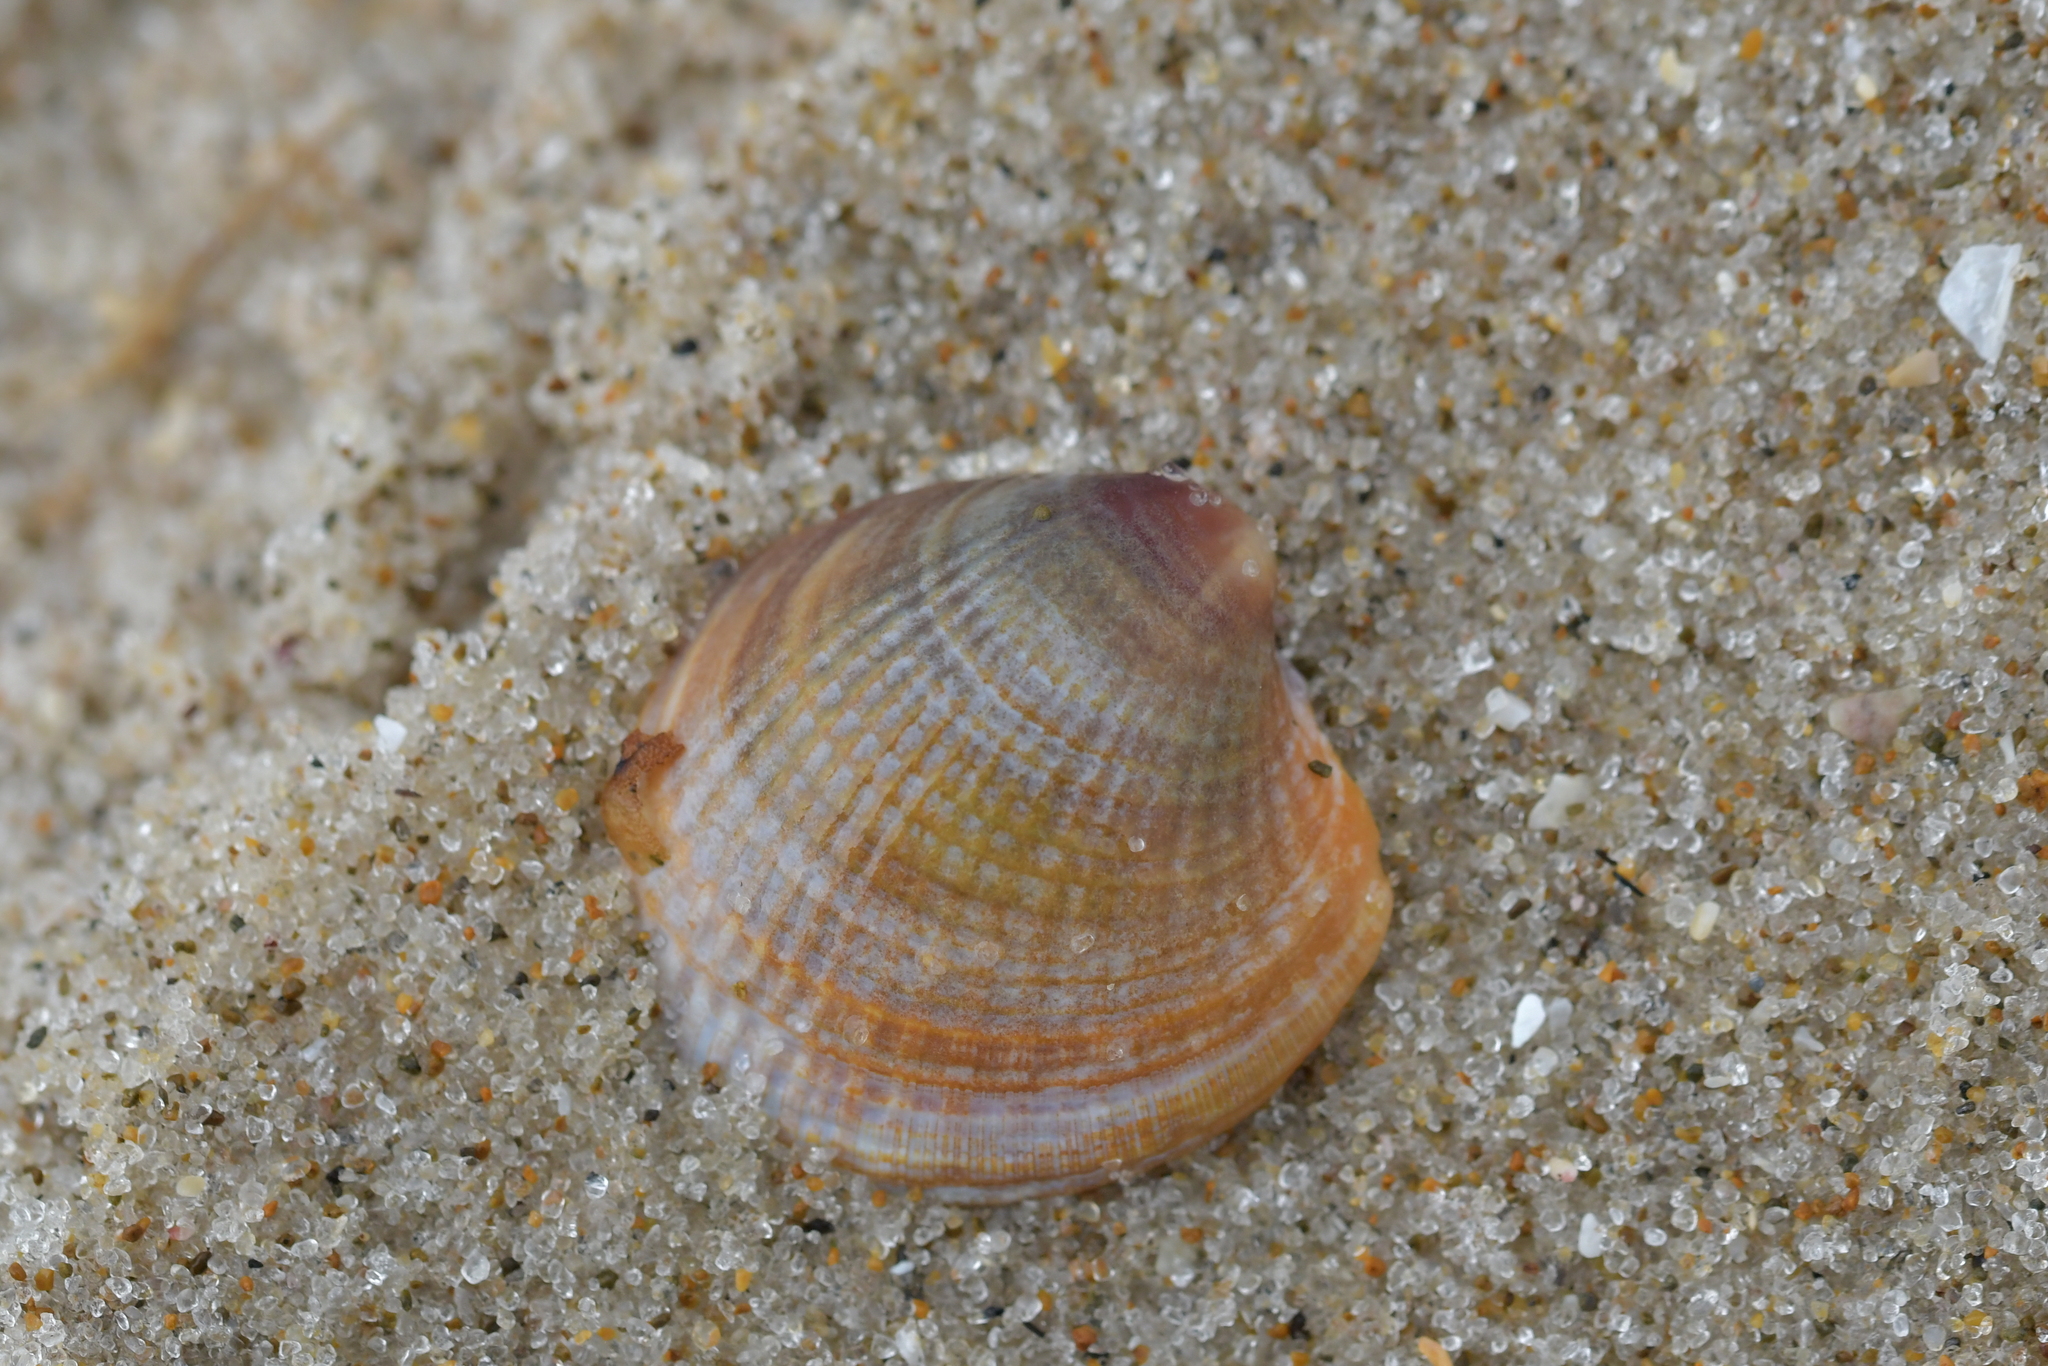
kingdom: Animalia
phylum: Mollusca
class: Bivalvia
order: Venerida
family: Veneridae
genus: Austrovenus
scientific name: Austrovenus stutchburyi
